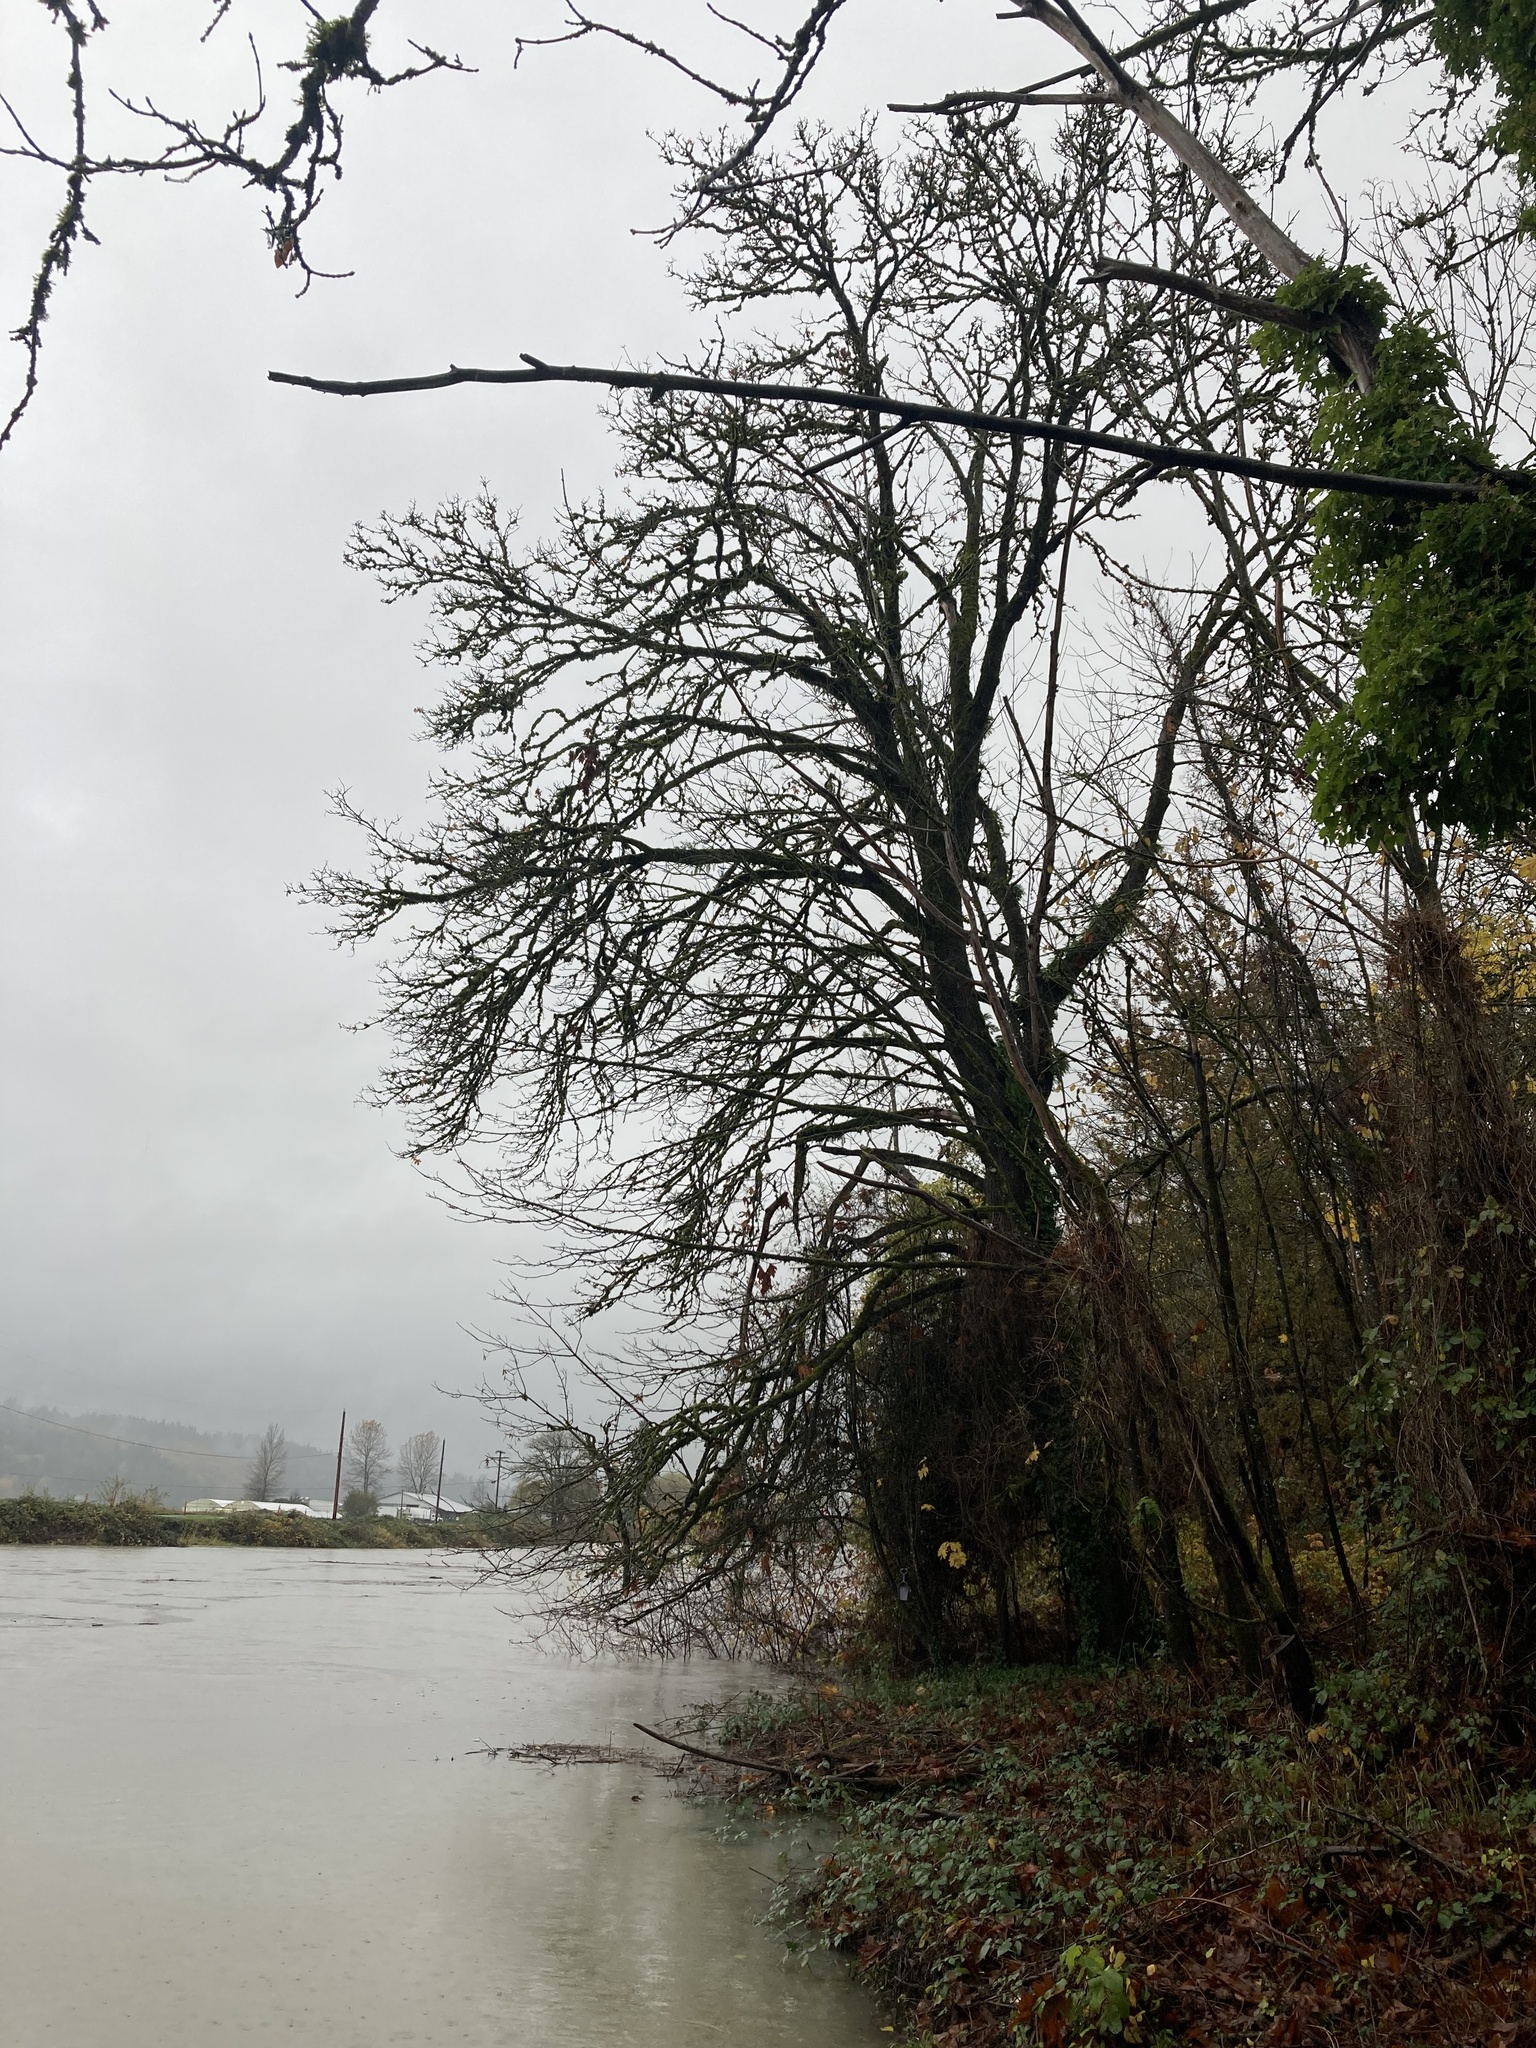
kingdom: Plantae
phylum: Tracheophyta
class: Magnoliopsida
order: Sapindales
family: Sapindaceae
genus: Acer
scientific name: Acer macrophyllum
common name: Oregon maple
